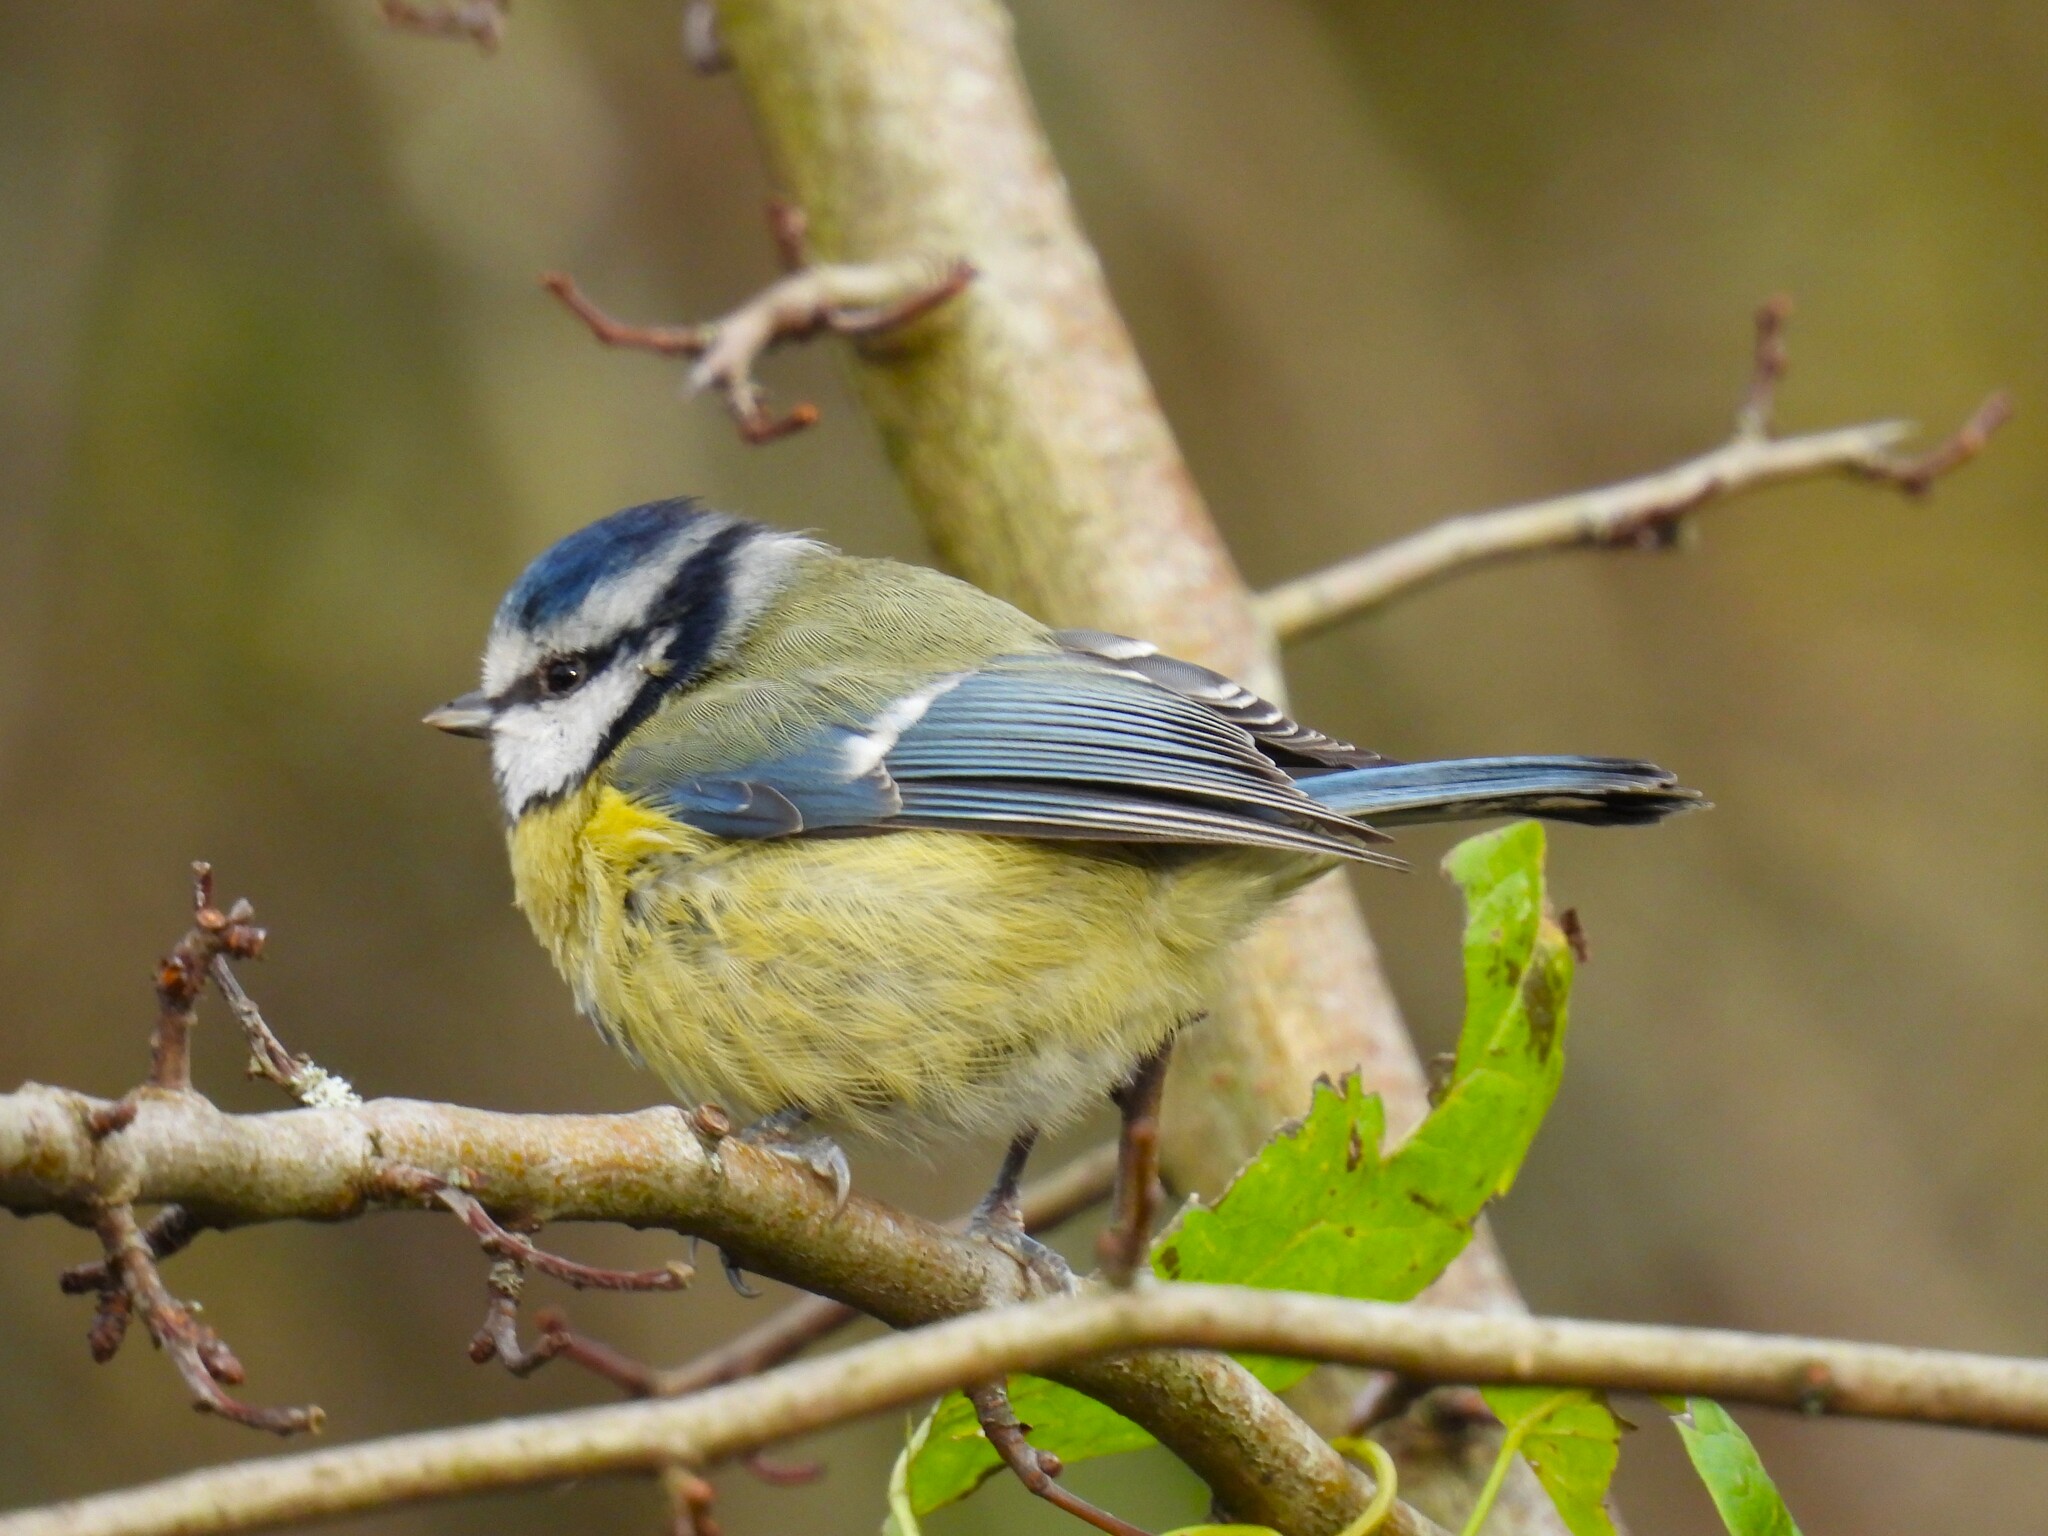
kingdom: Animalia
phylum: Chordata
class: Aves
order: Passeriformes
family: Paridae
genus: Cyanistes
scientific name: Cyanistes caeruleus
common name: Eurasian blue tit
